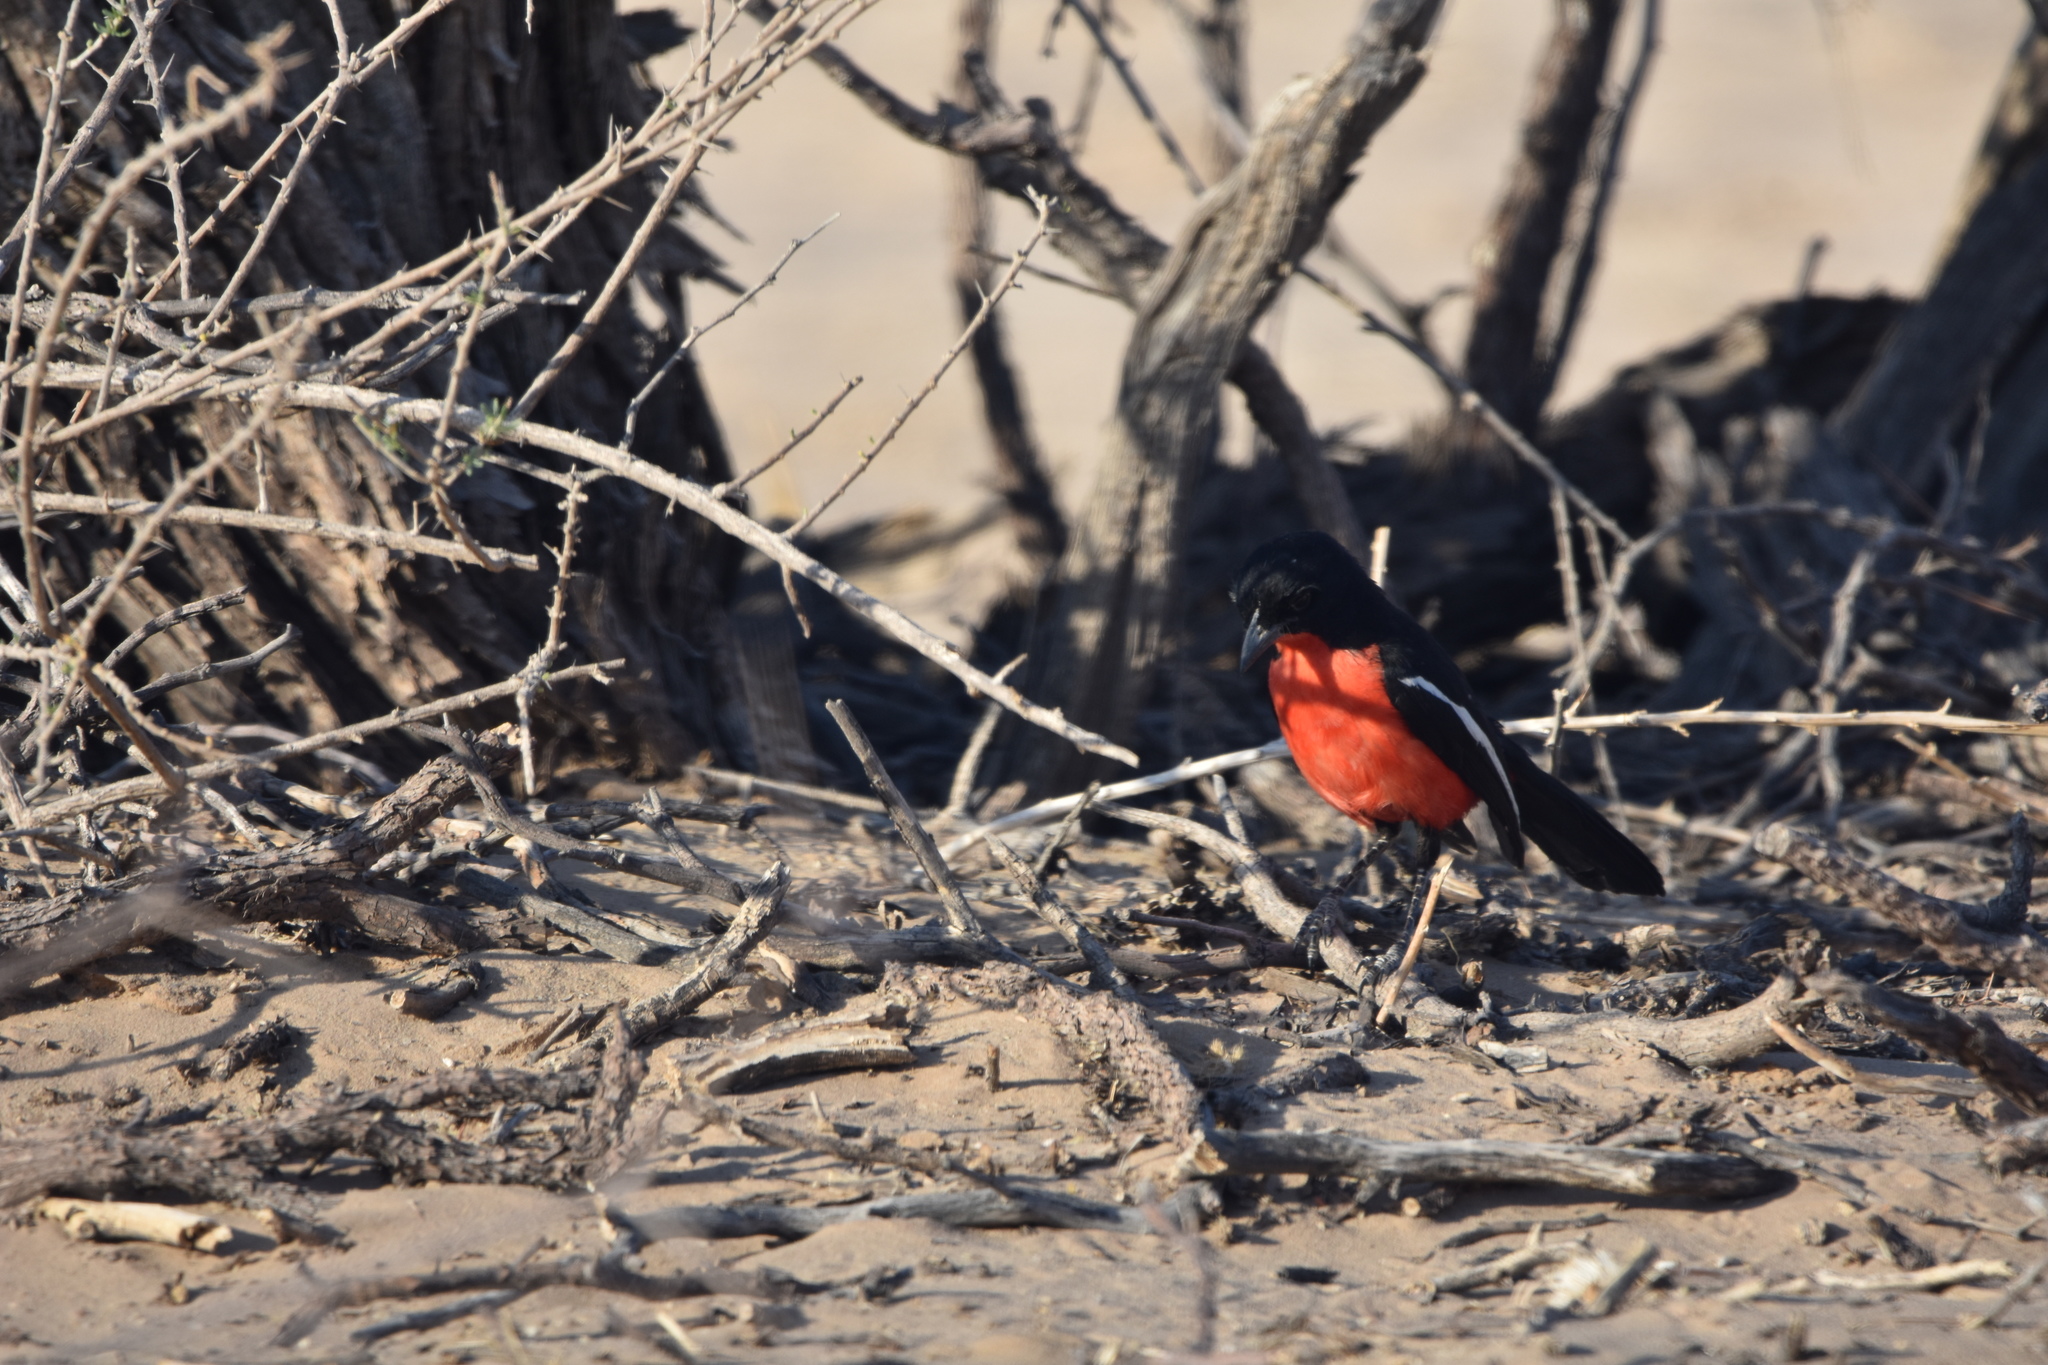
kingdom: Animalia
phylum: Chordata
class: Aves
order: Passeriformes
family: Malaconotidae
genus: Laniarius
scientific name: Laniarius atrococcineus
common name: Crimson-breasted shrike
